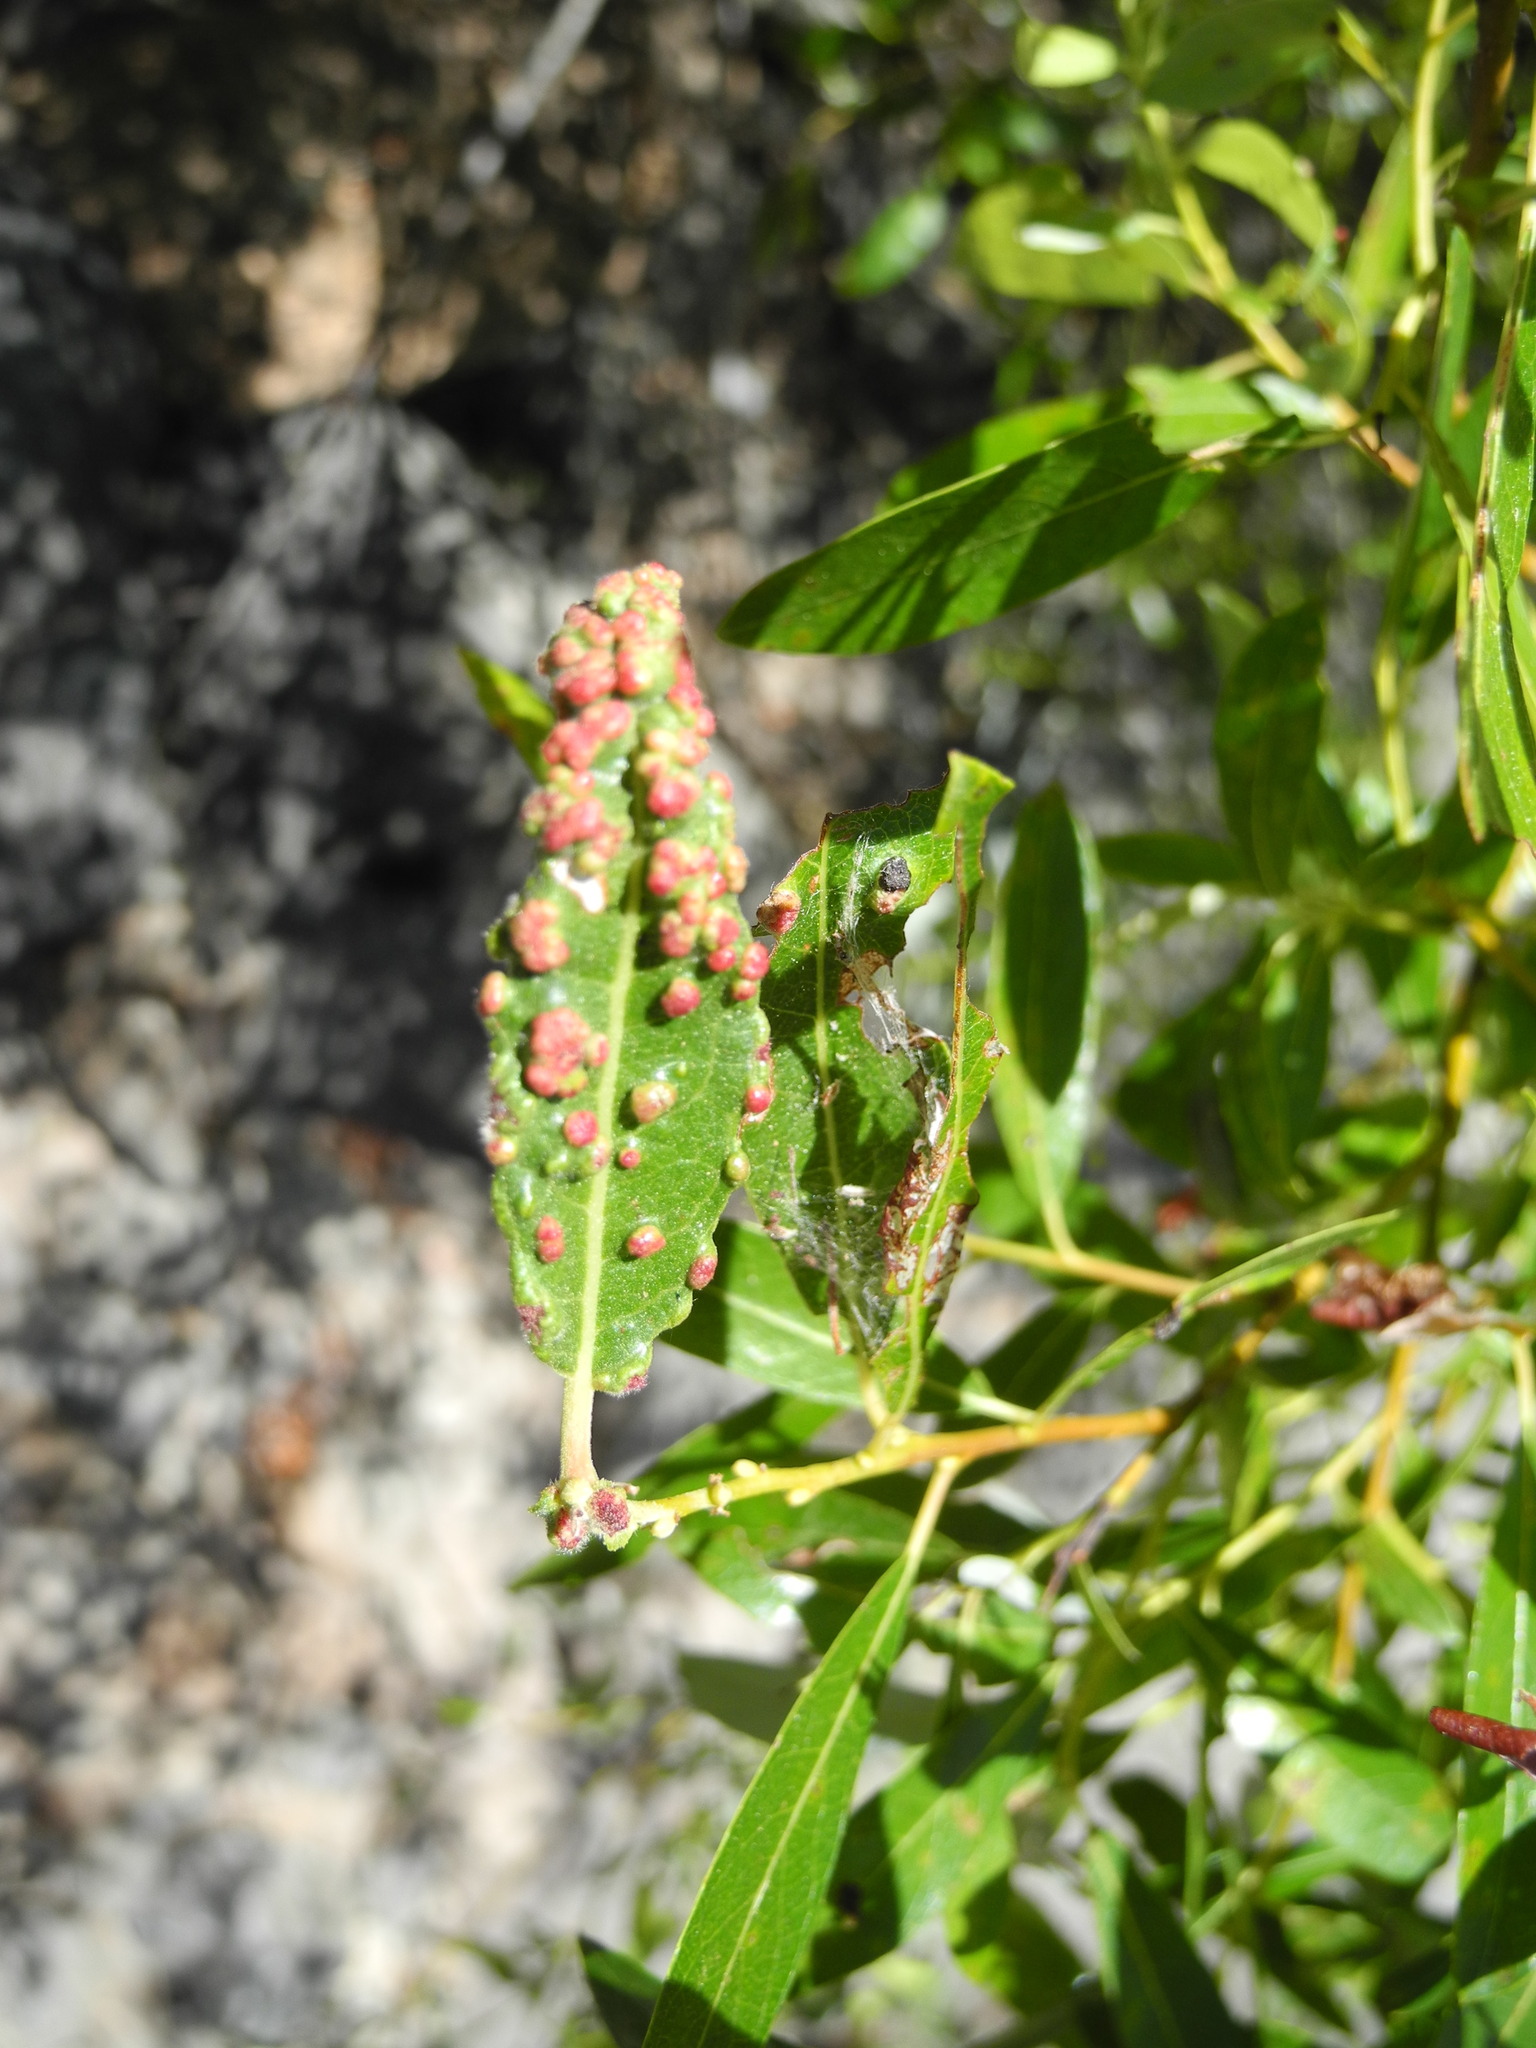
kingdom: Animalia
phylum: Arthropoda
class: Arachnida
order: Trombidiformes
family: Eriophyidae
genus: Aculus
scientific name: Aculus tetanothrix
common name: Willow bead gall mite
